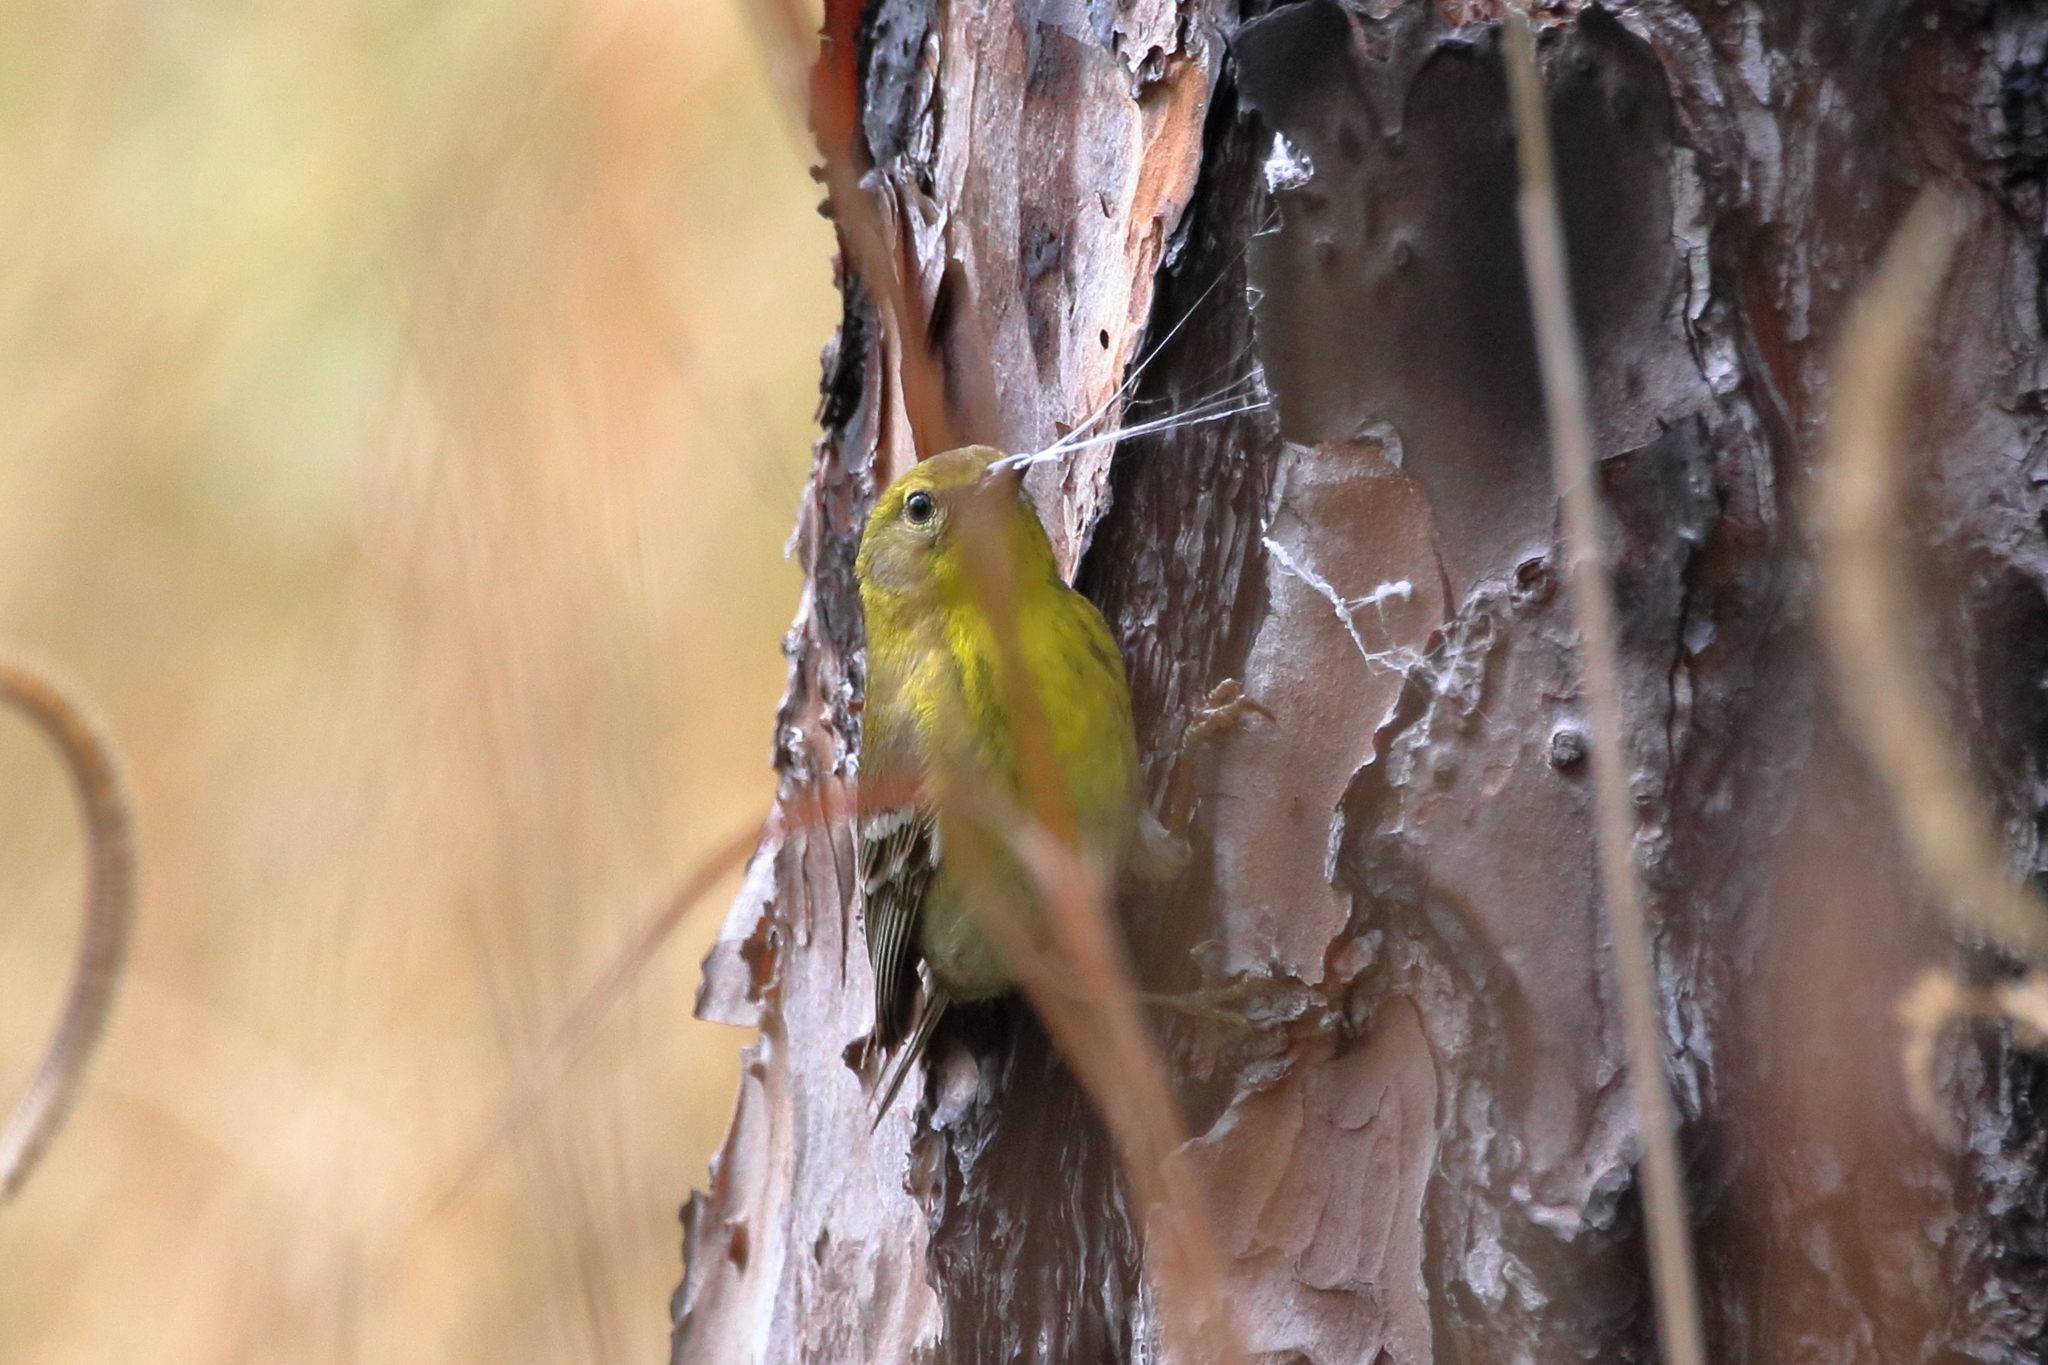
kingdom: Animalia
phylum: Chordata
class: Aves
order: Passeriformes
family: Parulidae
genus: Setophaga
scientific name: Setophaga pinus
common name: Pine warbler
